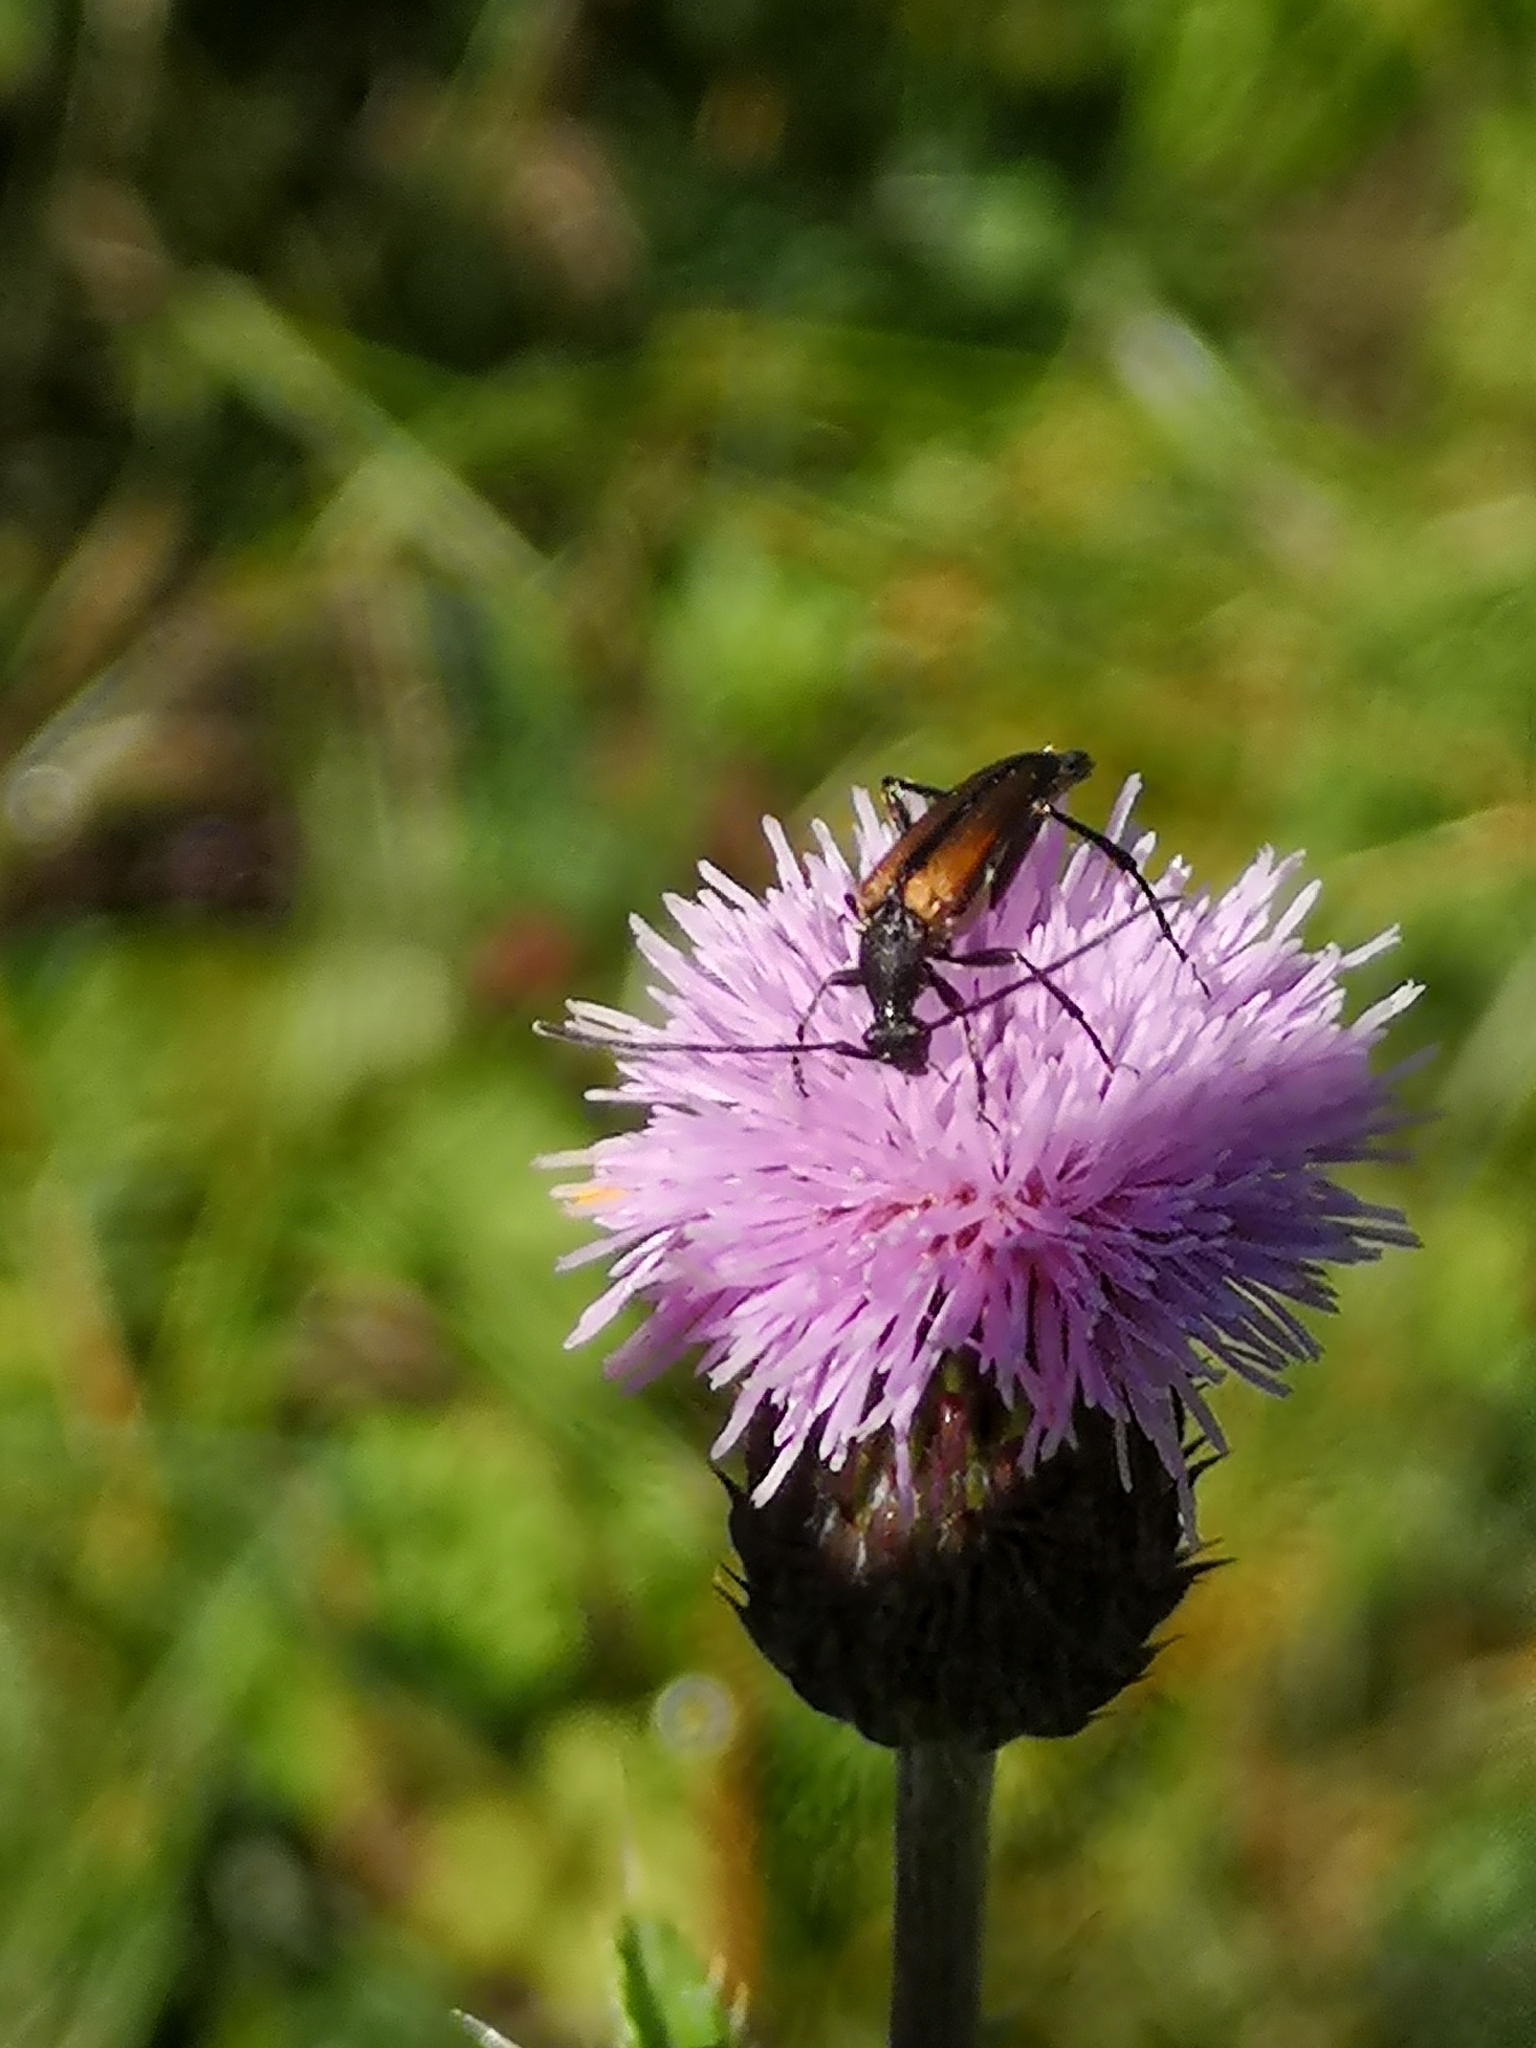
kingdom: Animalia
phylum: Arthropoda
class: Insecta
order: Coleoptera
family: Cerambycidae
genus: Stenurella
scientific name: Stenurella melanura
